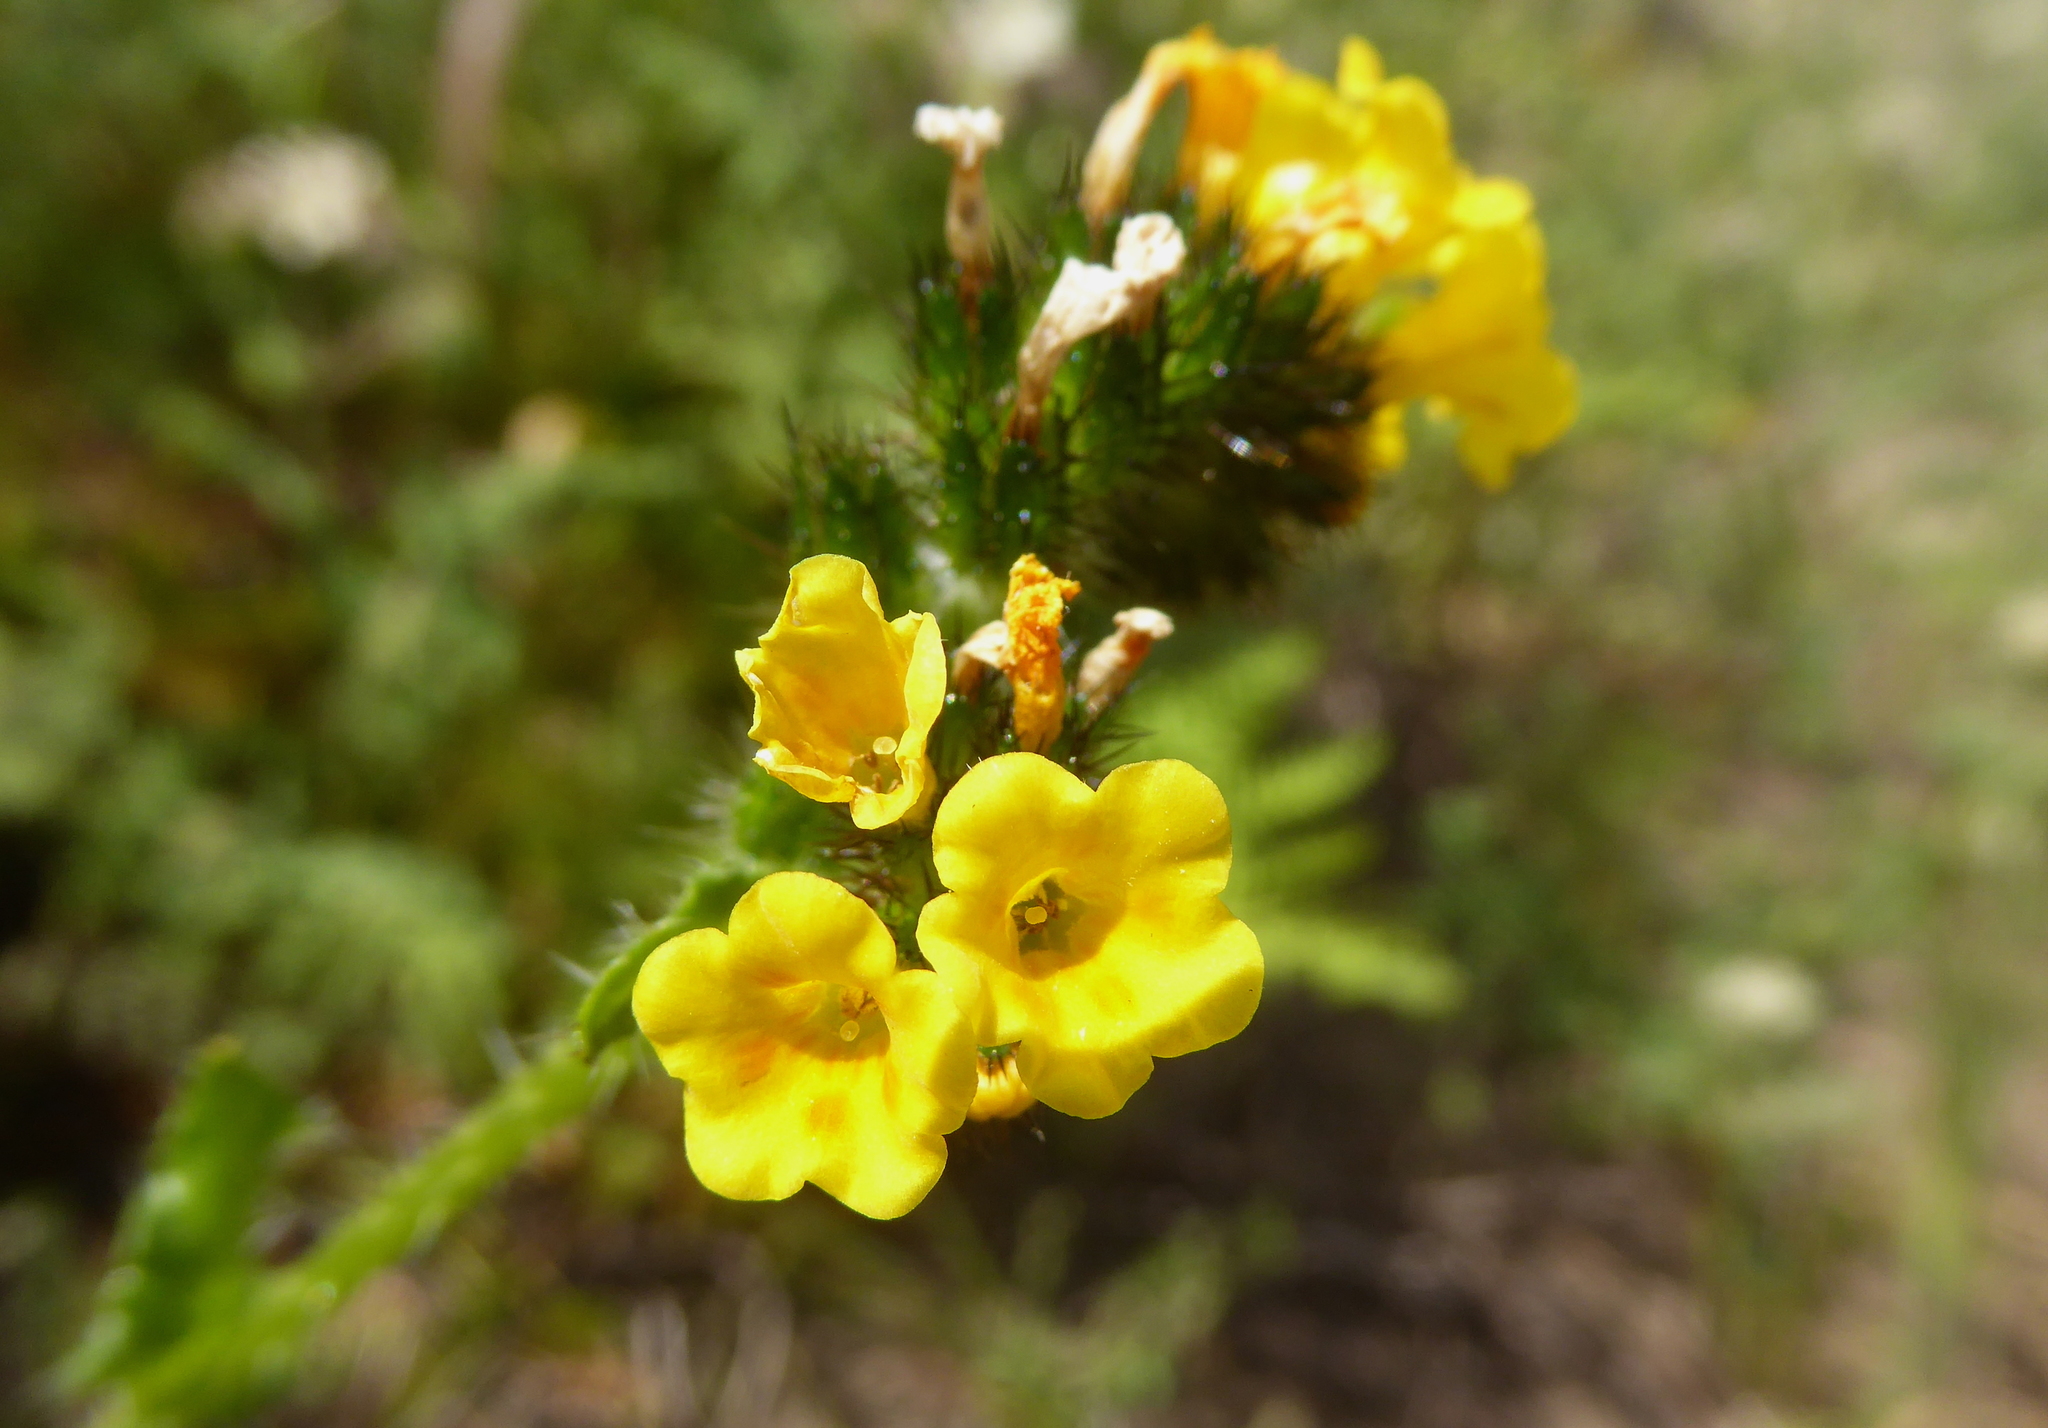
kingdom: Plantae
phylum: Tracheophyta
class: Magnoliopsida
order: Boraginales
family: Boraginaceae
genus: Amsinckia
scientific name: Amsinckia spectabilis
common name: Seaside fiddleneck
